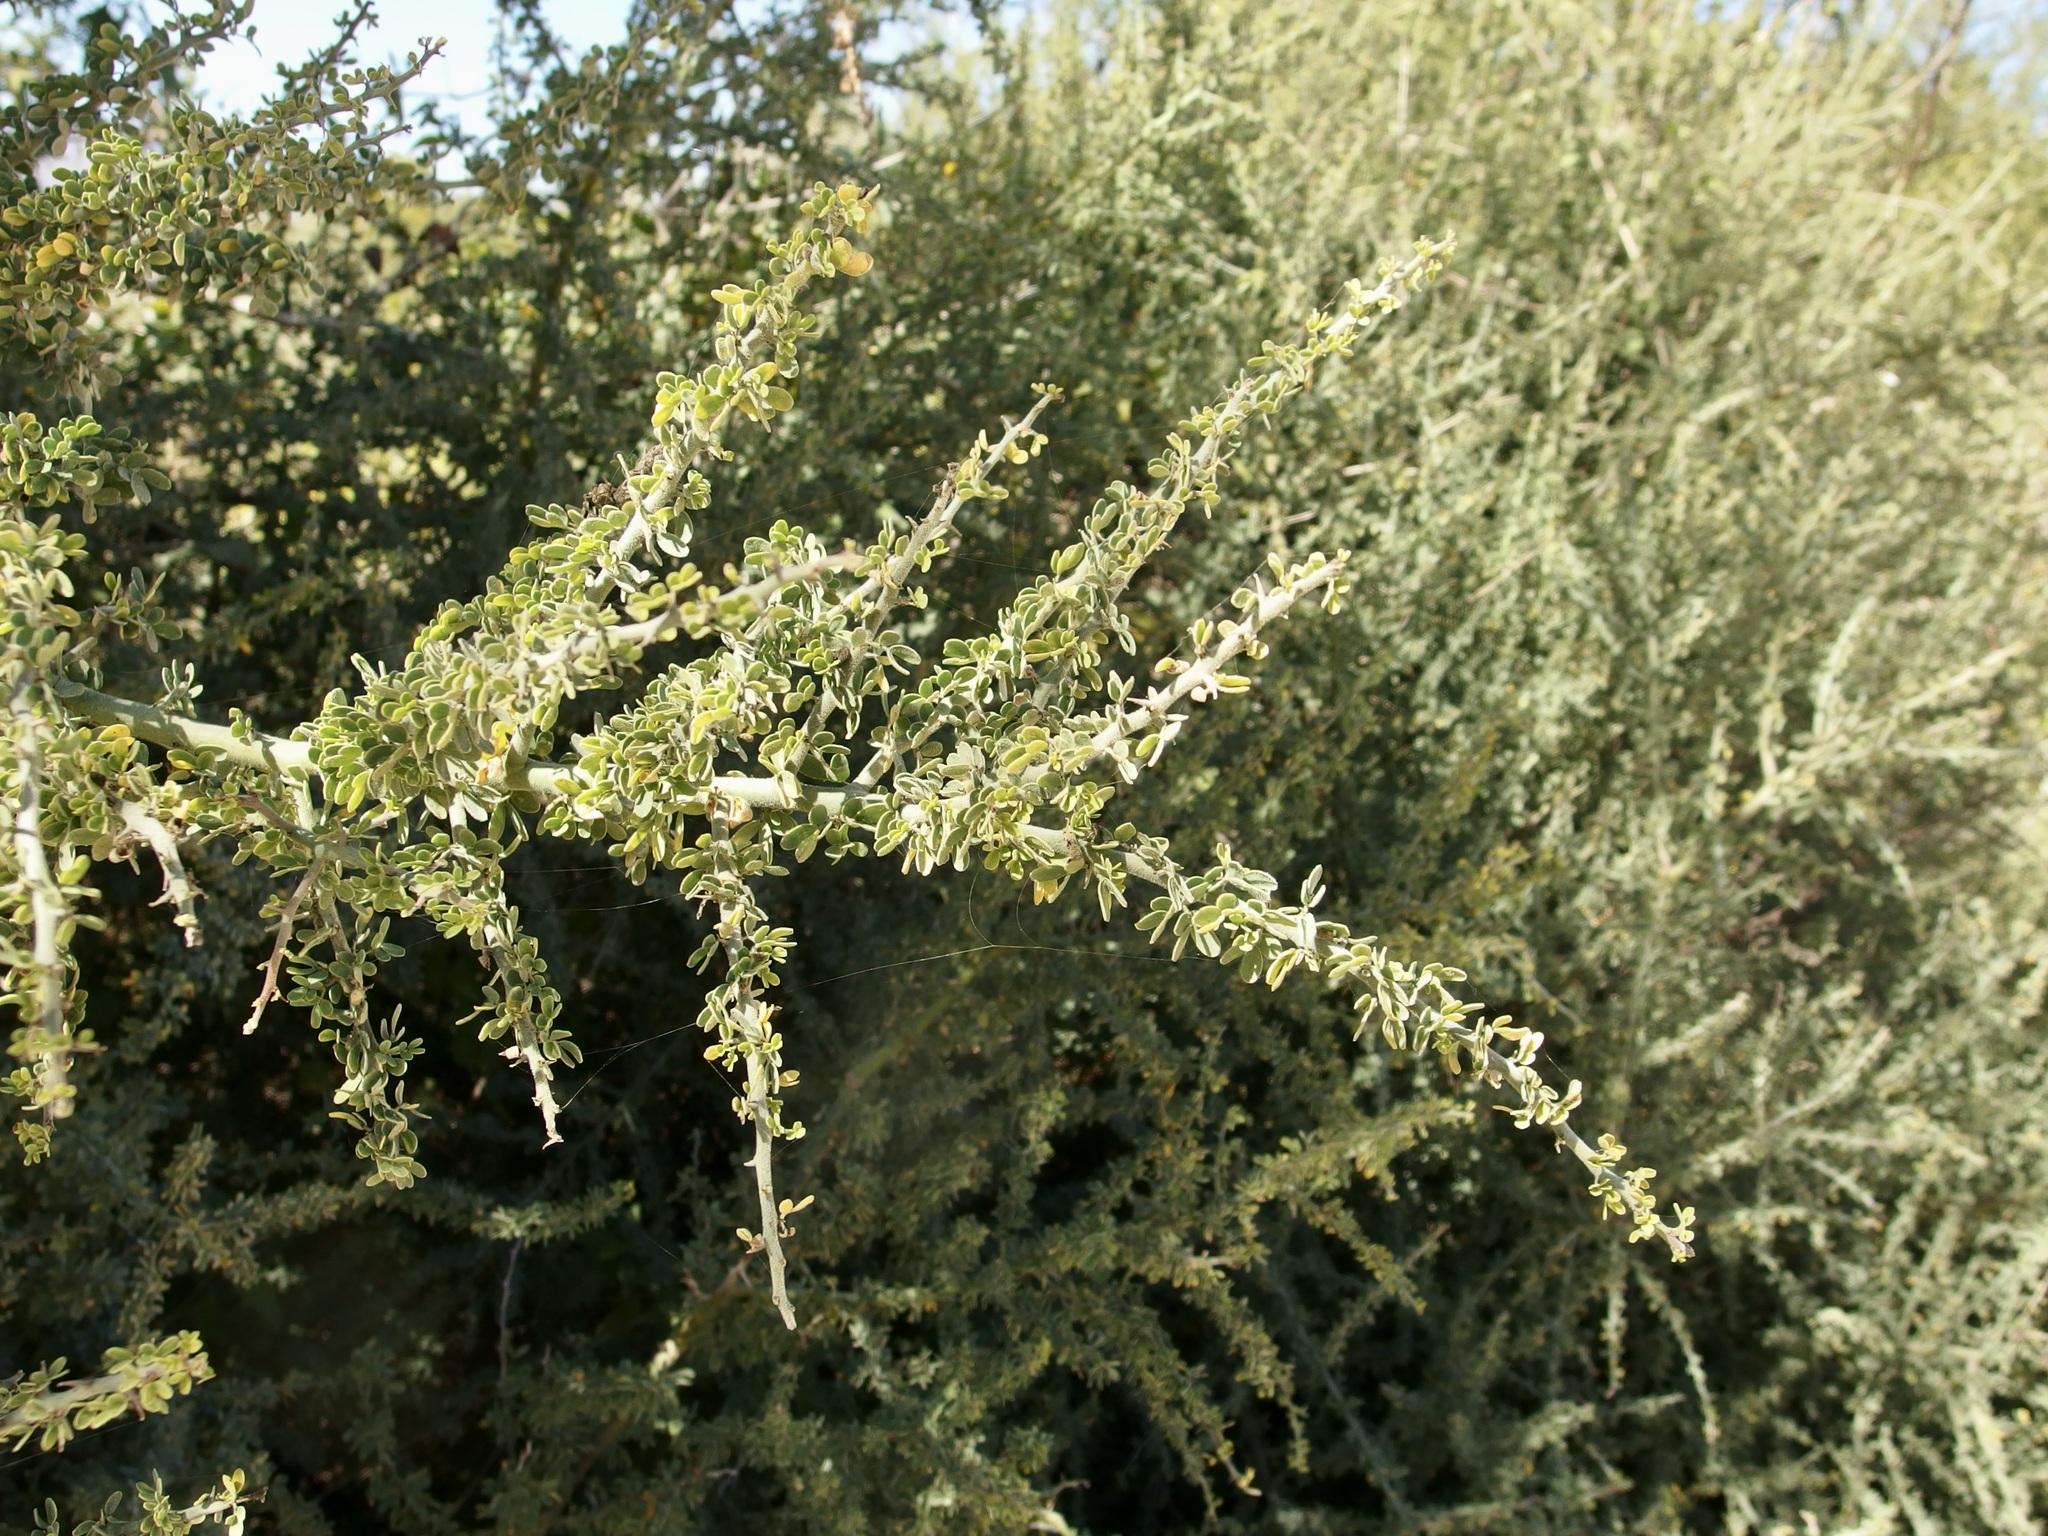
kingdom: Plantae
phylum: Tracheophyta
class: Magnoliopsida
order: Fabales
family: Fabaceae
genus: Parkinsonia
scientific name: Parkinsonia florida
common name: Blue paloverde
